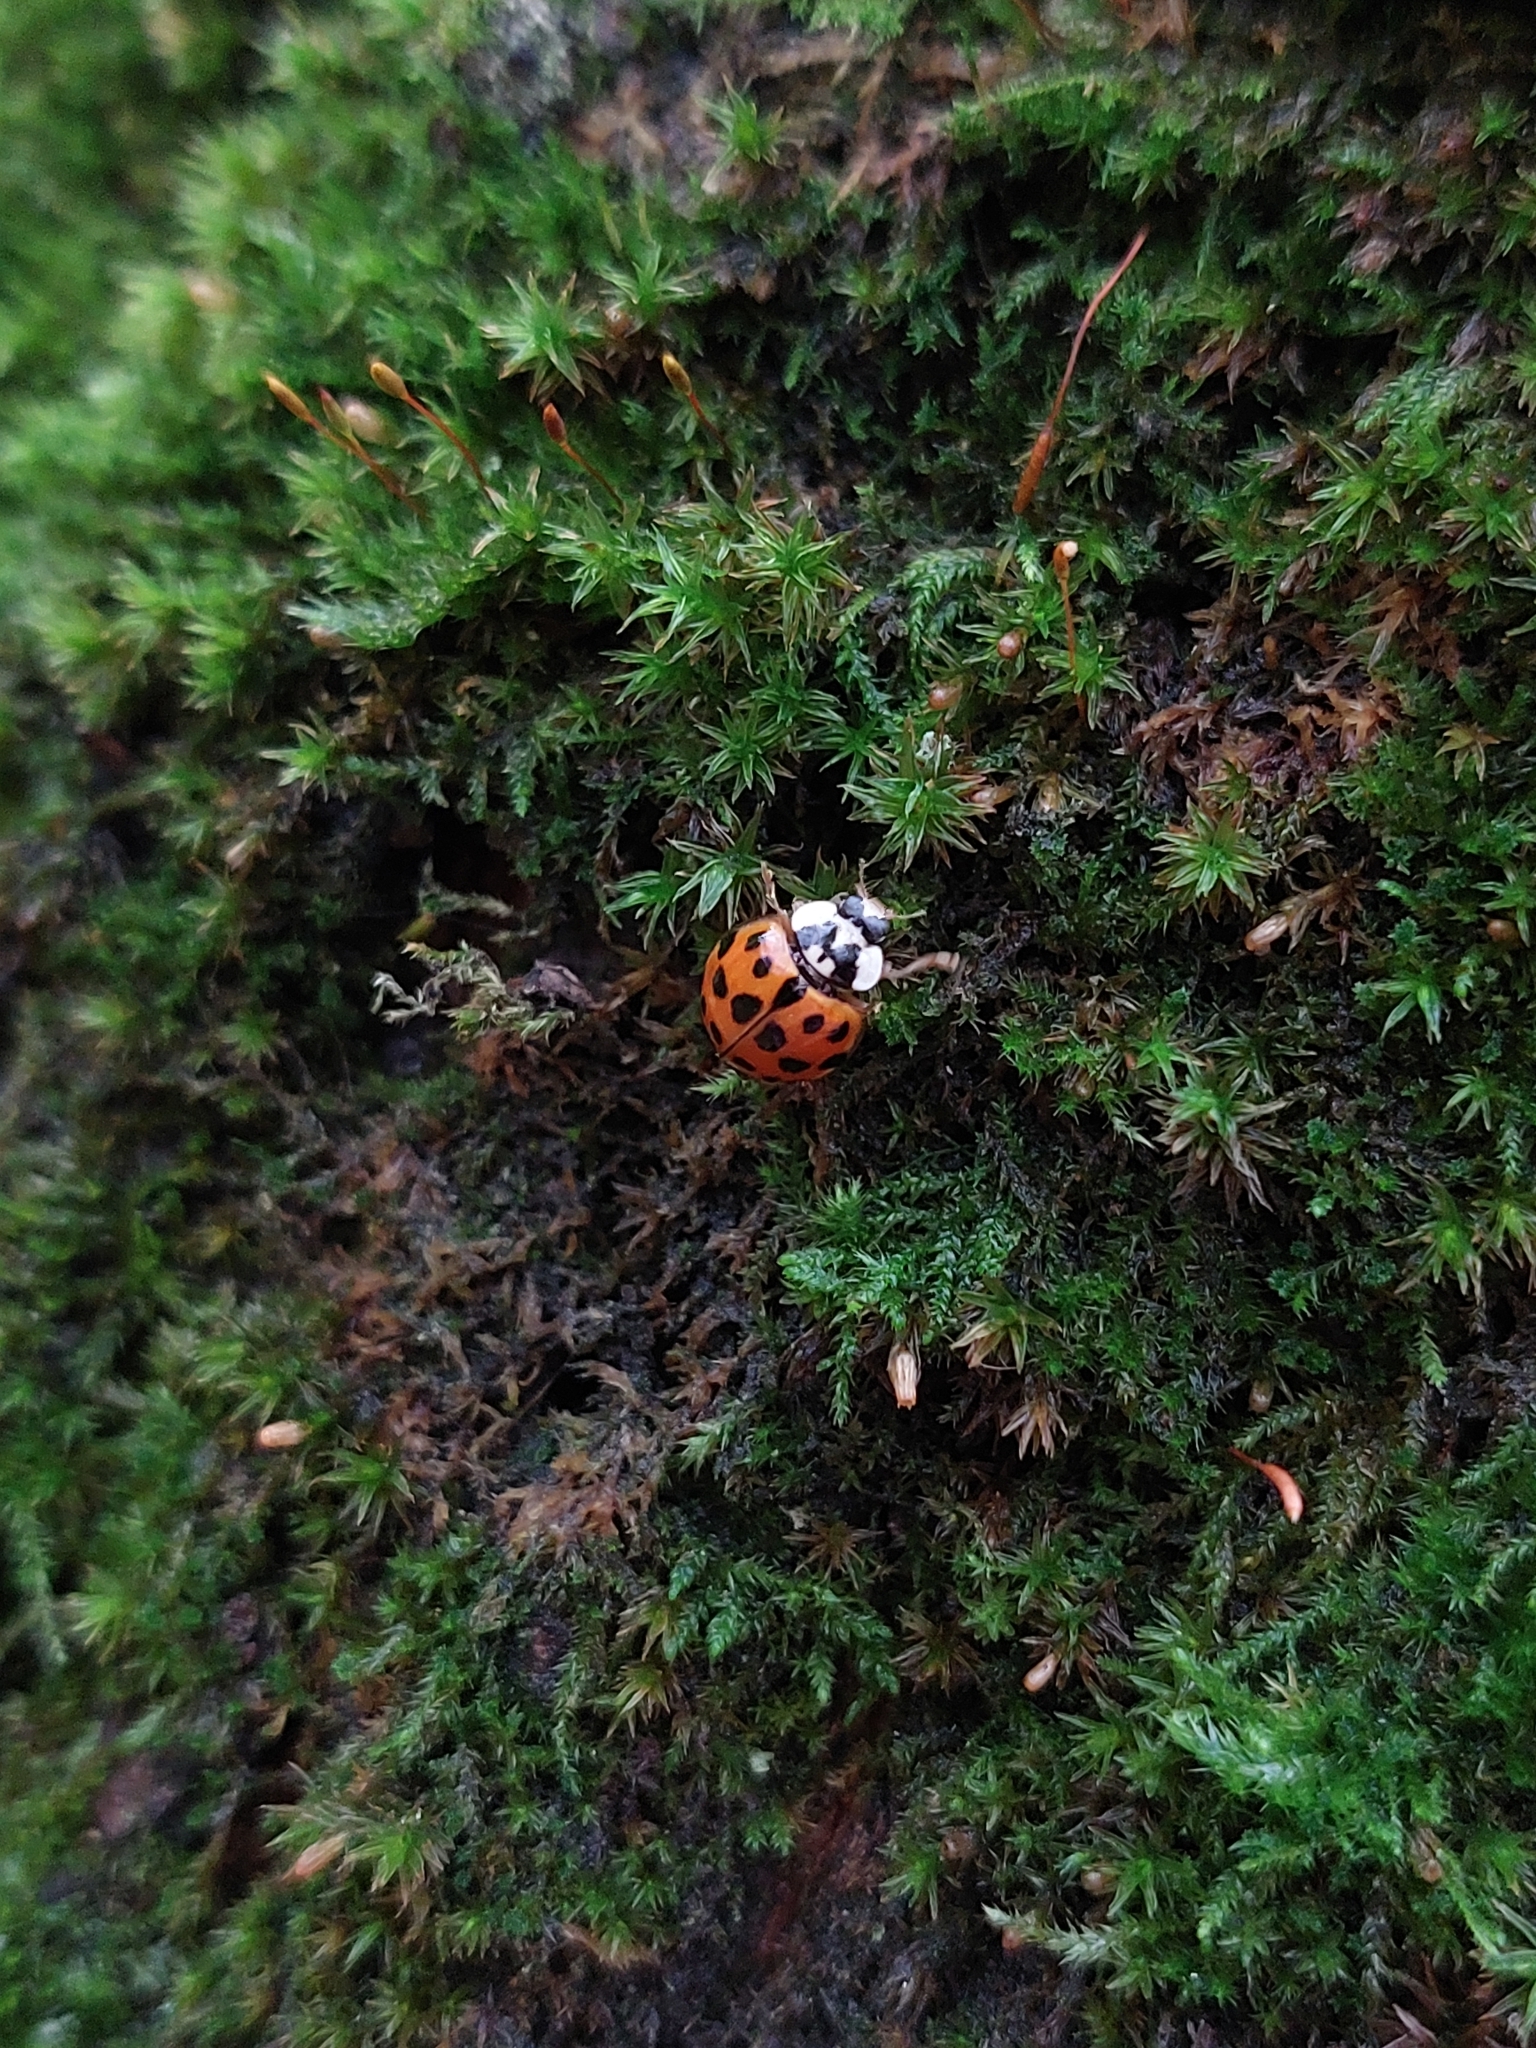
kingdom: Animalia
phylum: Arthropoda
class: Insecta
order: Coleoptera
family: Coccinellidae
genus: Harmonia
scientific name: Harmonia axyridis
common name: Harlequin ladybird
